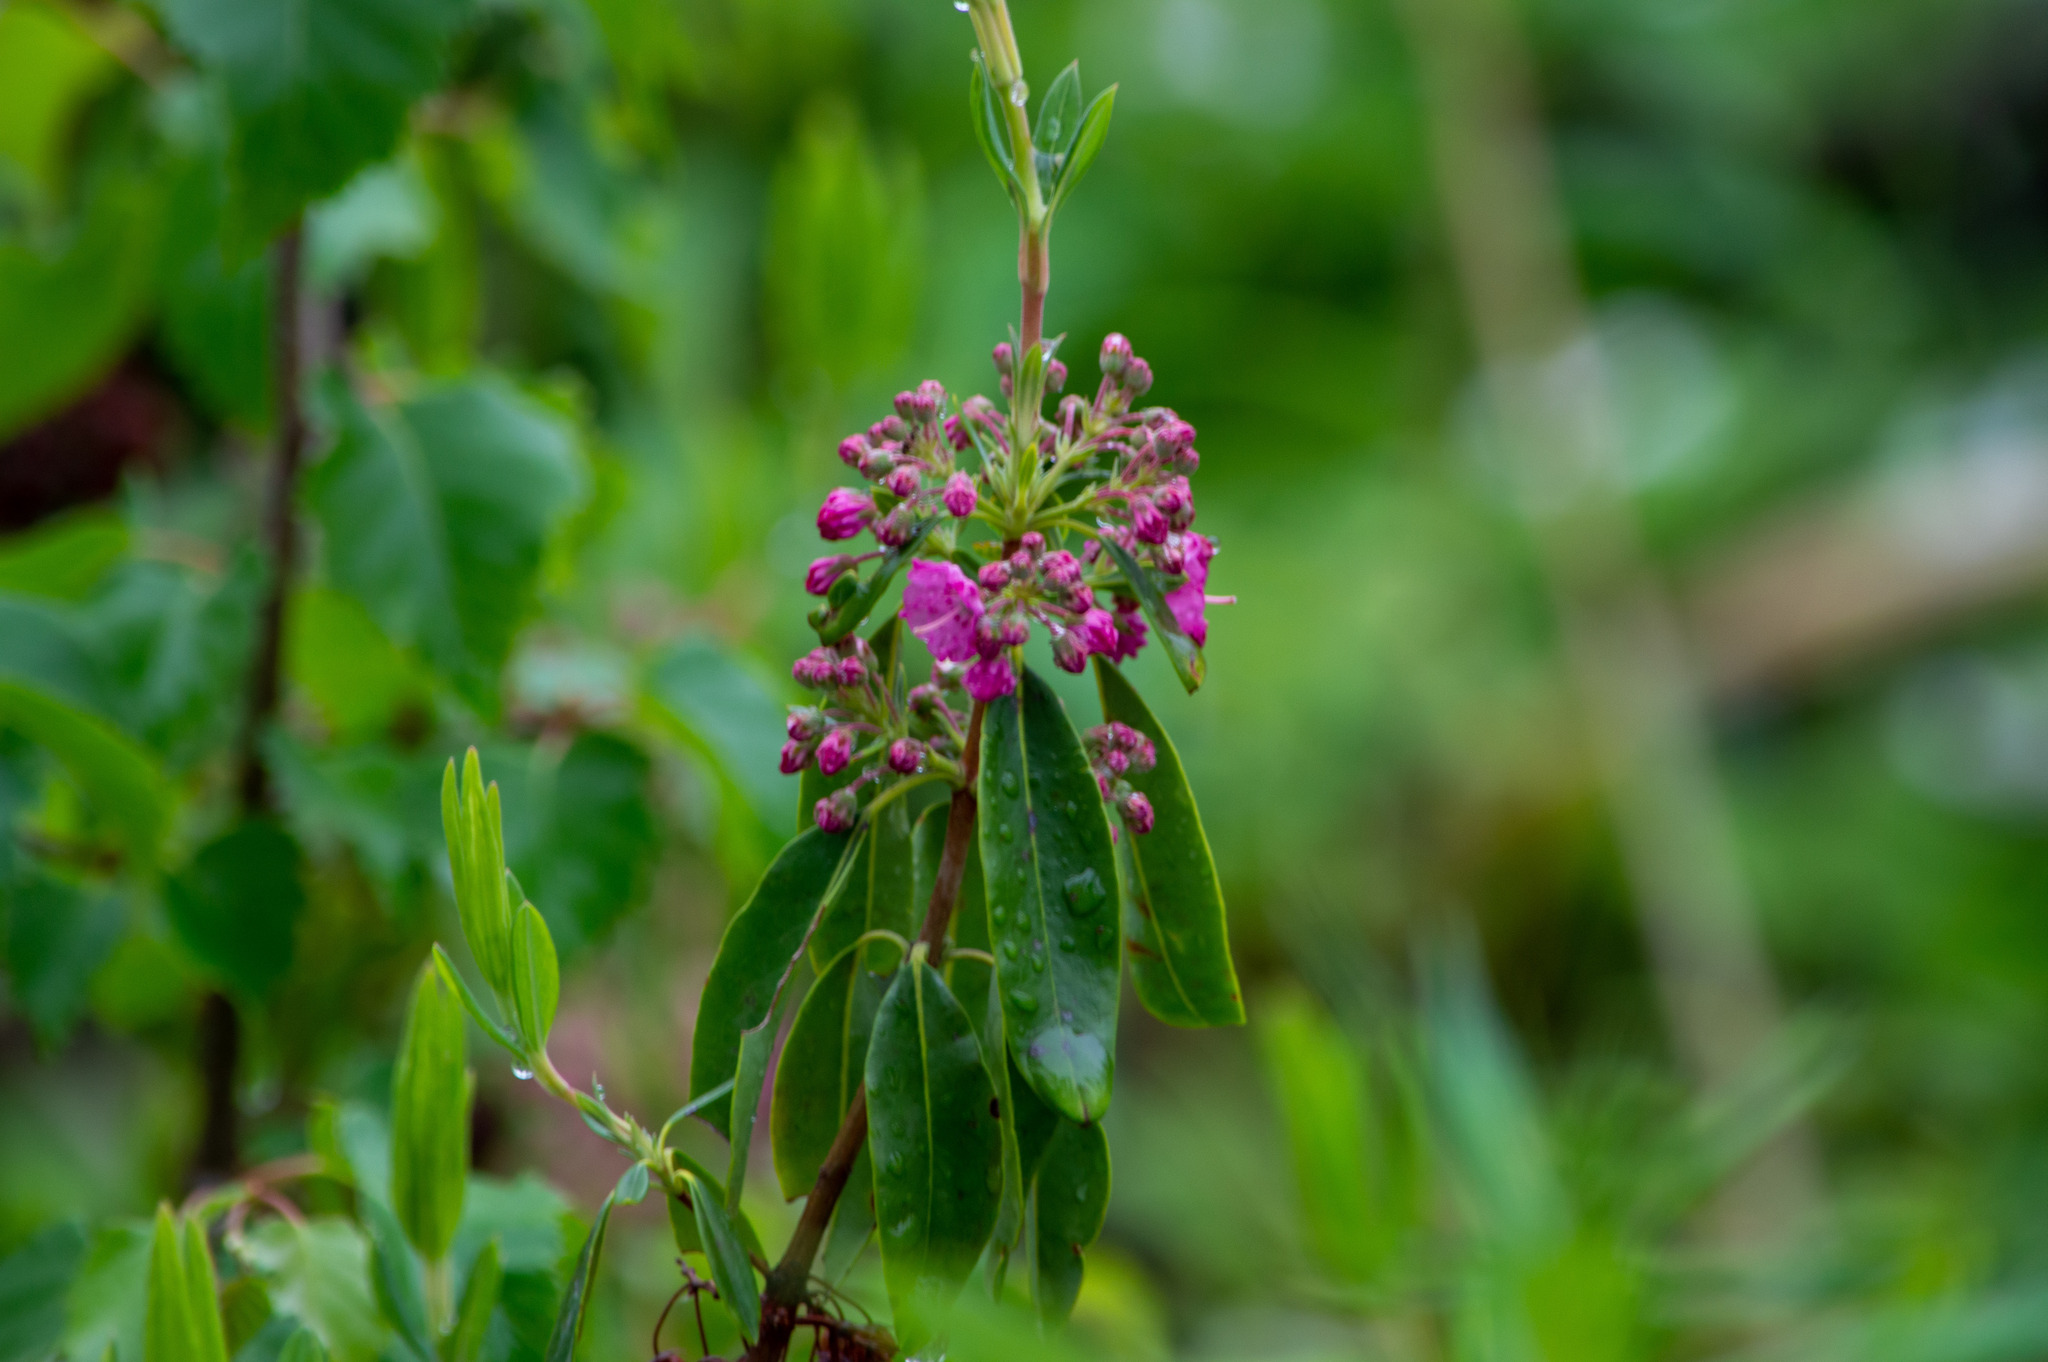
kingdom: Plantae
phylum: Tracheophyta
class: Magnoliopsida
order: Ericales
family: Ericaceae
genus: Kalmia
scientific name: Kalmia angustifolia
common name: Sheep-laurel
